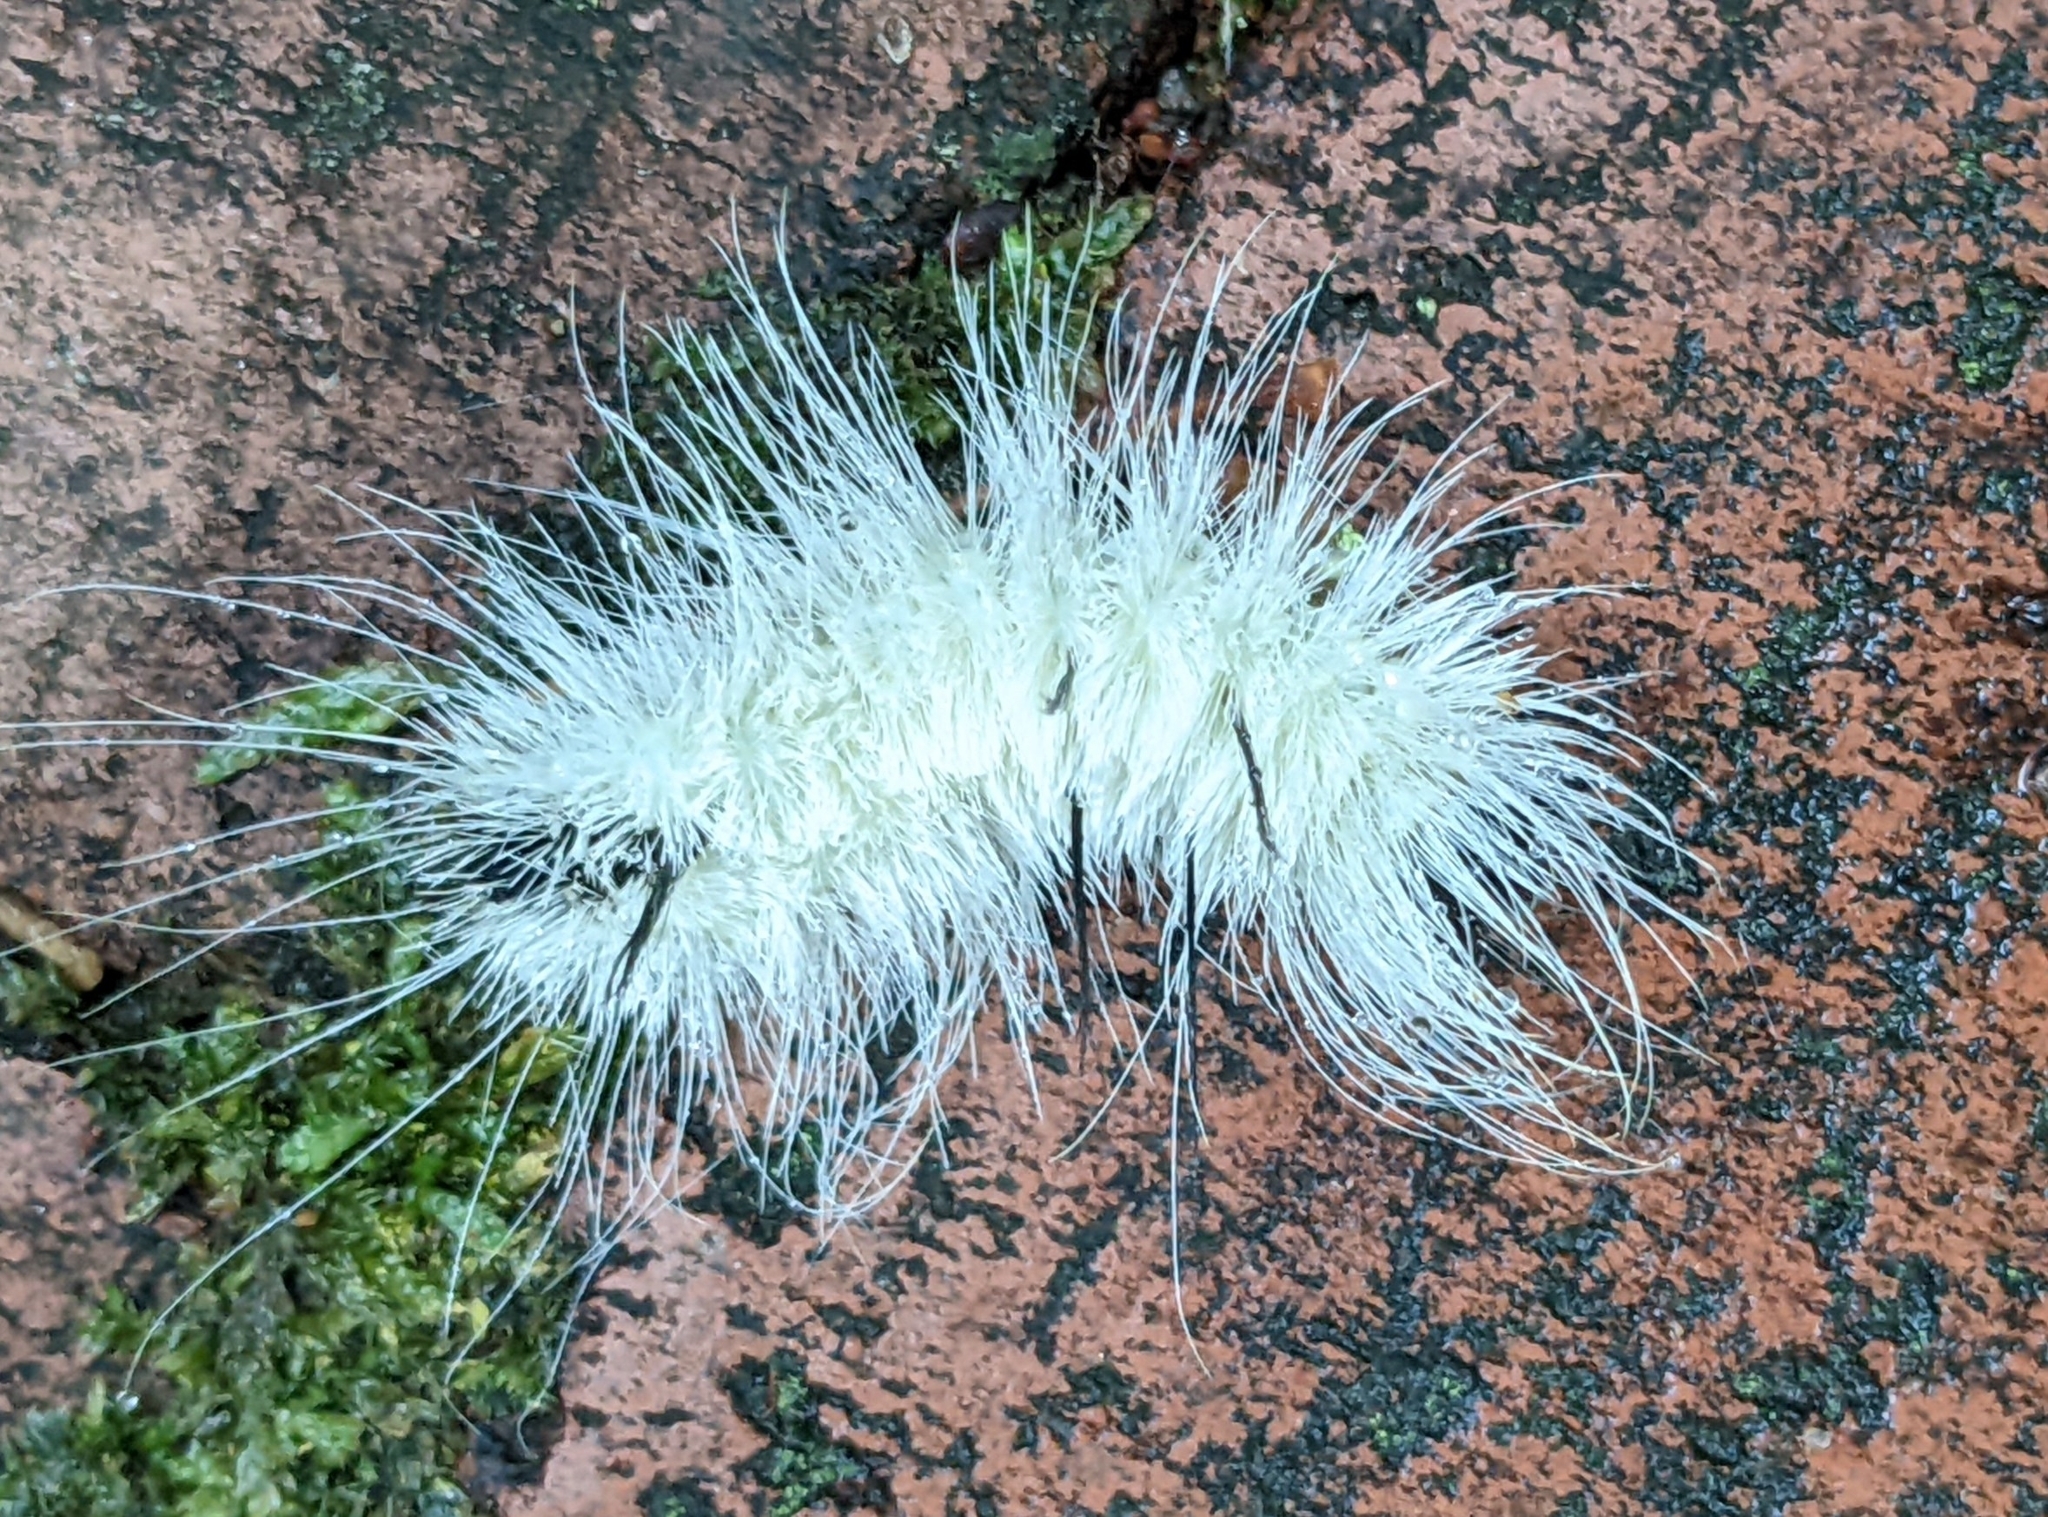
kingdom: Animalia
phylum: Arthropoda
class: Insecta
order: Lepidoptera
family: Noctuidae
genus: Acronicta
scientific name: Acronicta americana
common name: American dagger
